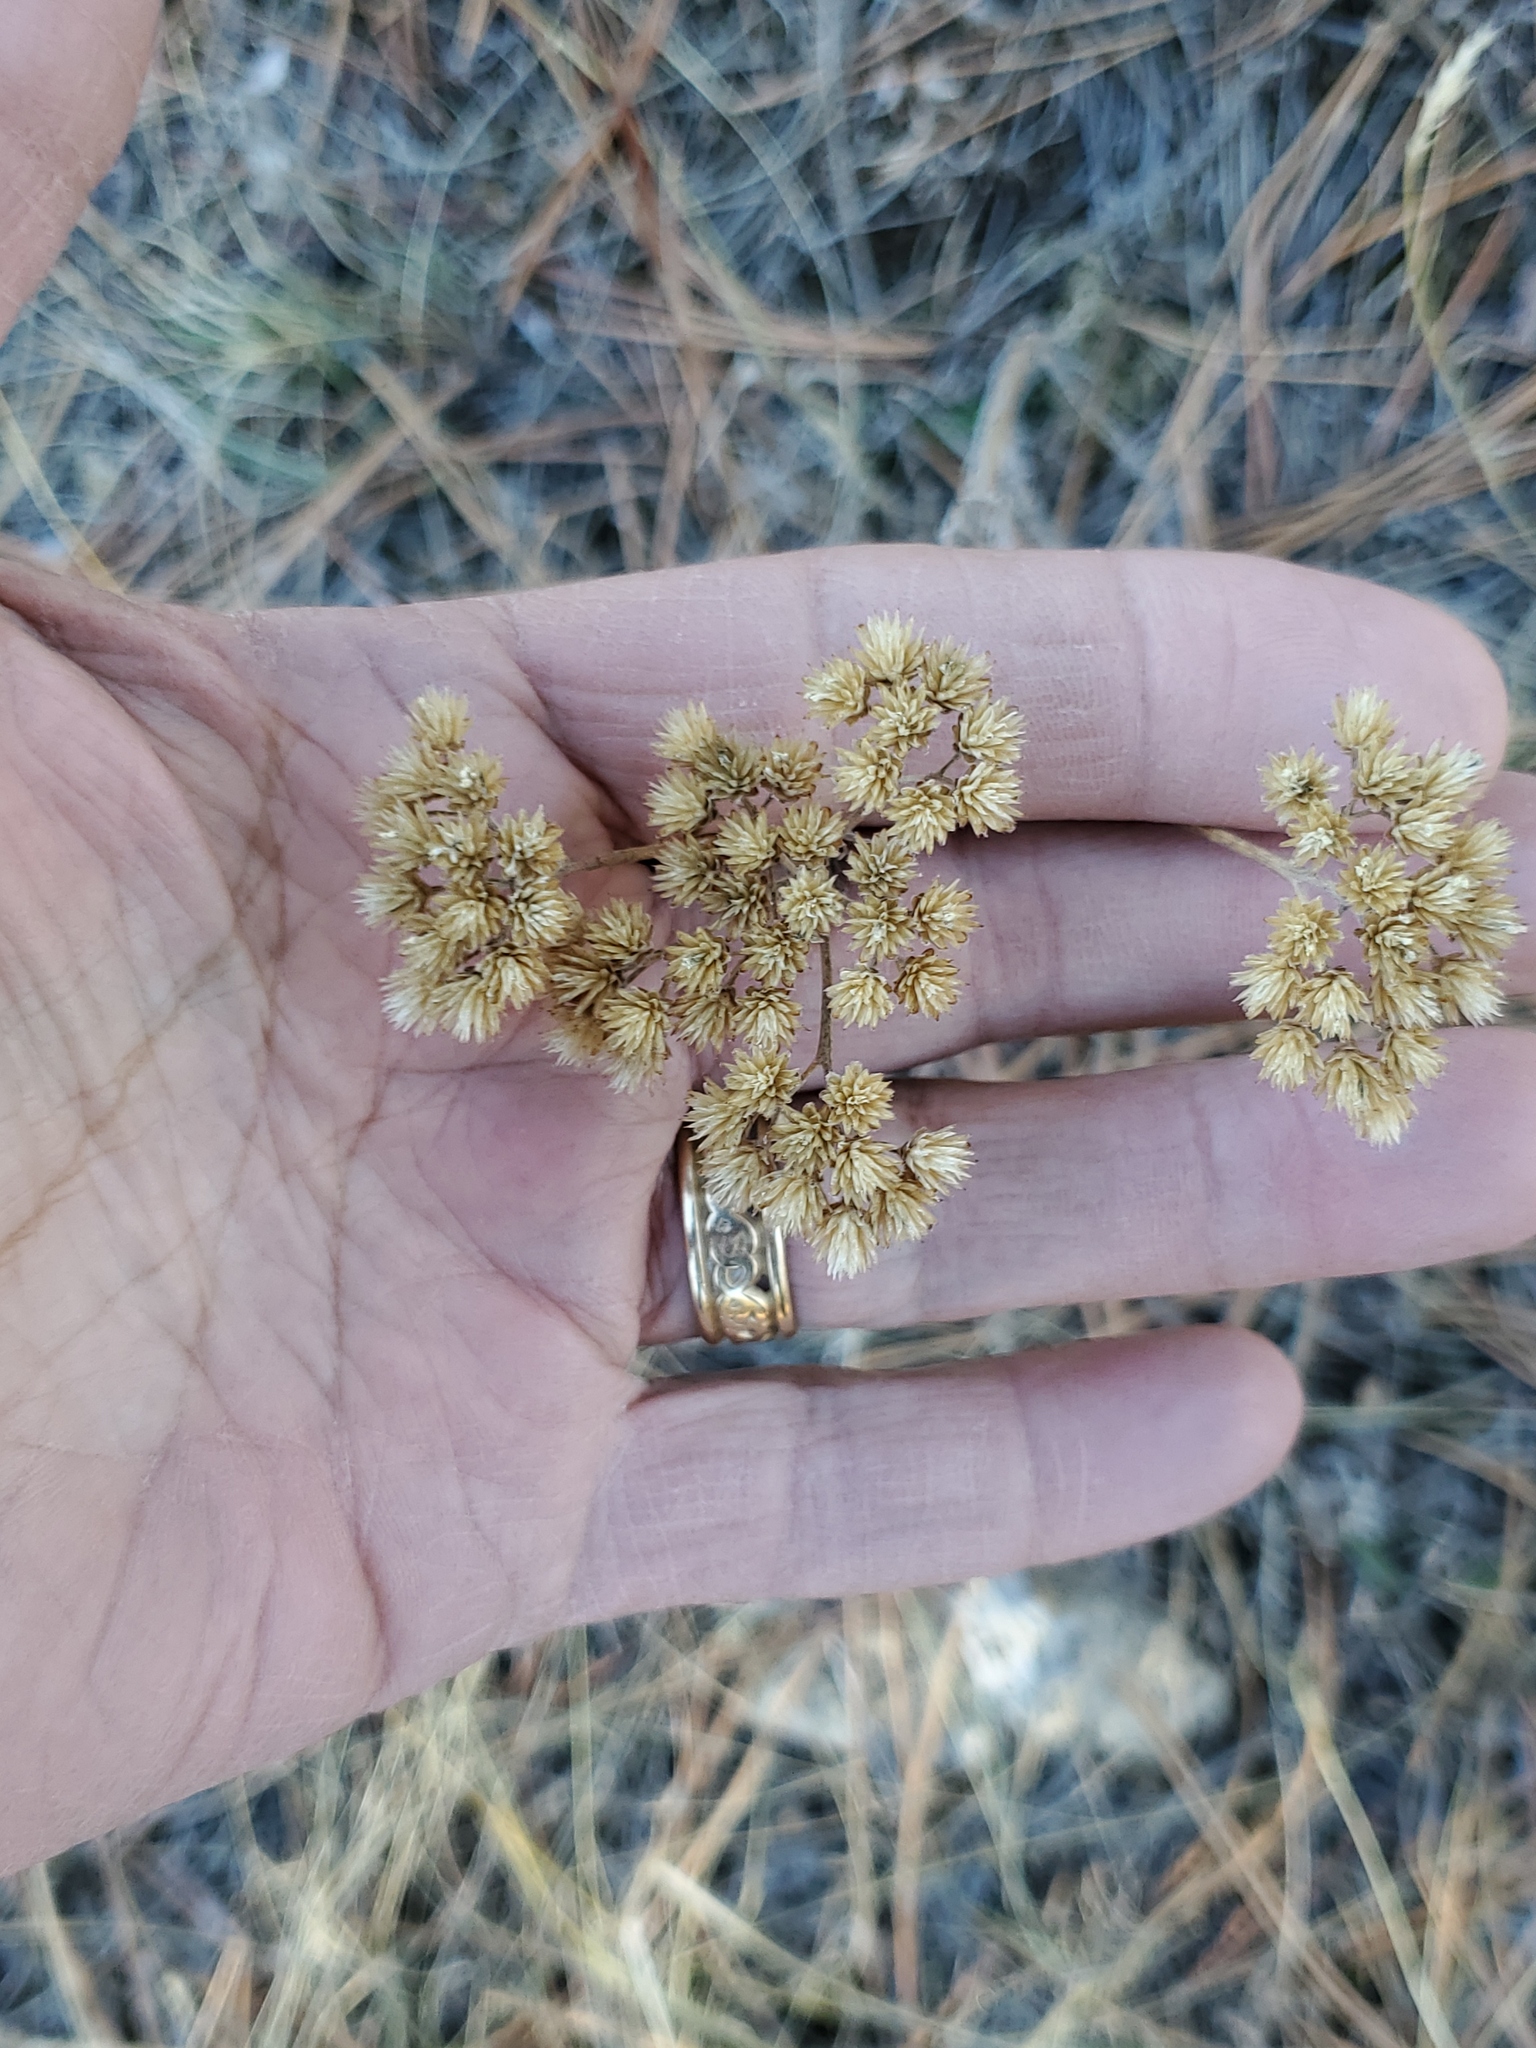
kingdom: Plantae
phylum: Tracheophyta
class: Magnoliopsida
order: Asterales
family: Asteraceae
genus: Achillea
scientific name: Achillea millefolium
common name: Yarrow
